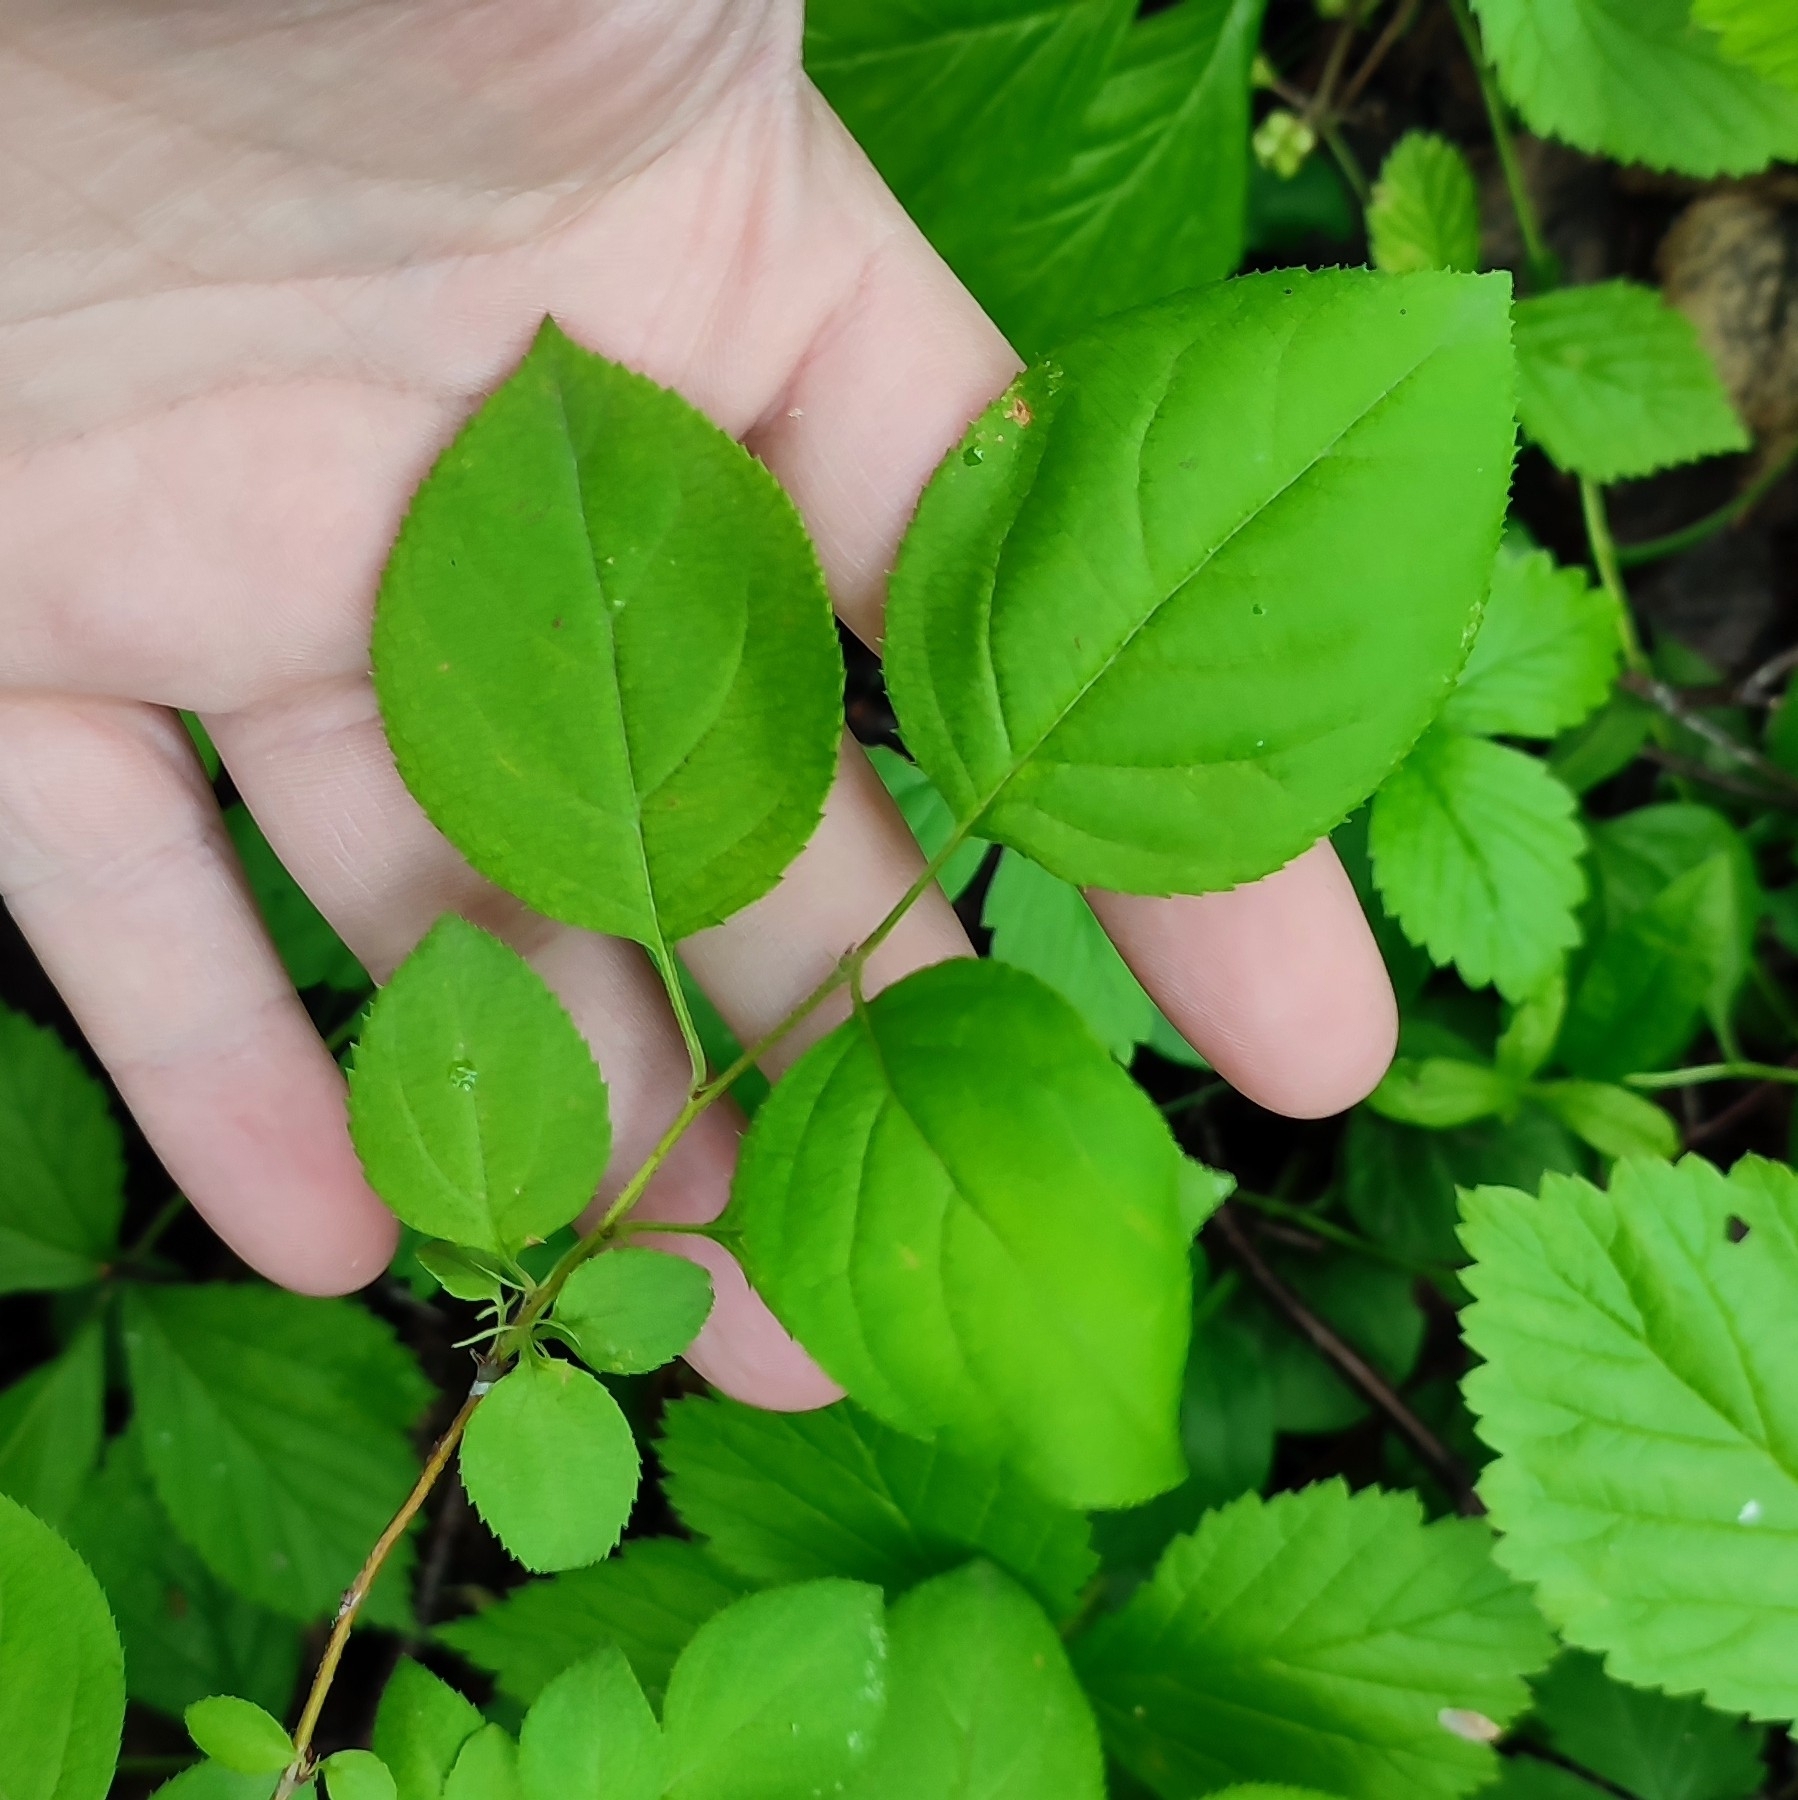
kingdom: Plantae
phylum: Tracheophyta
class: Magnoliopsida
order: Rosales
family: Rosaceae
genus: Malus
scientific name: Malus baccata
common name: Siberian crab
